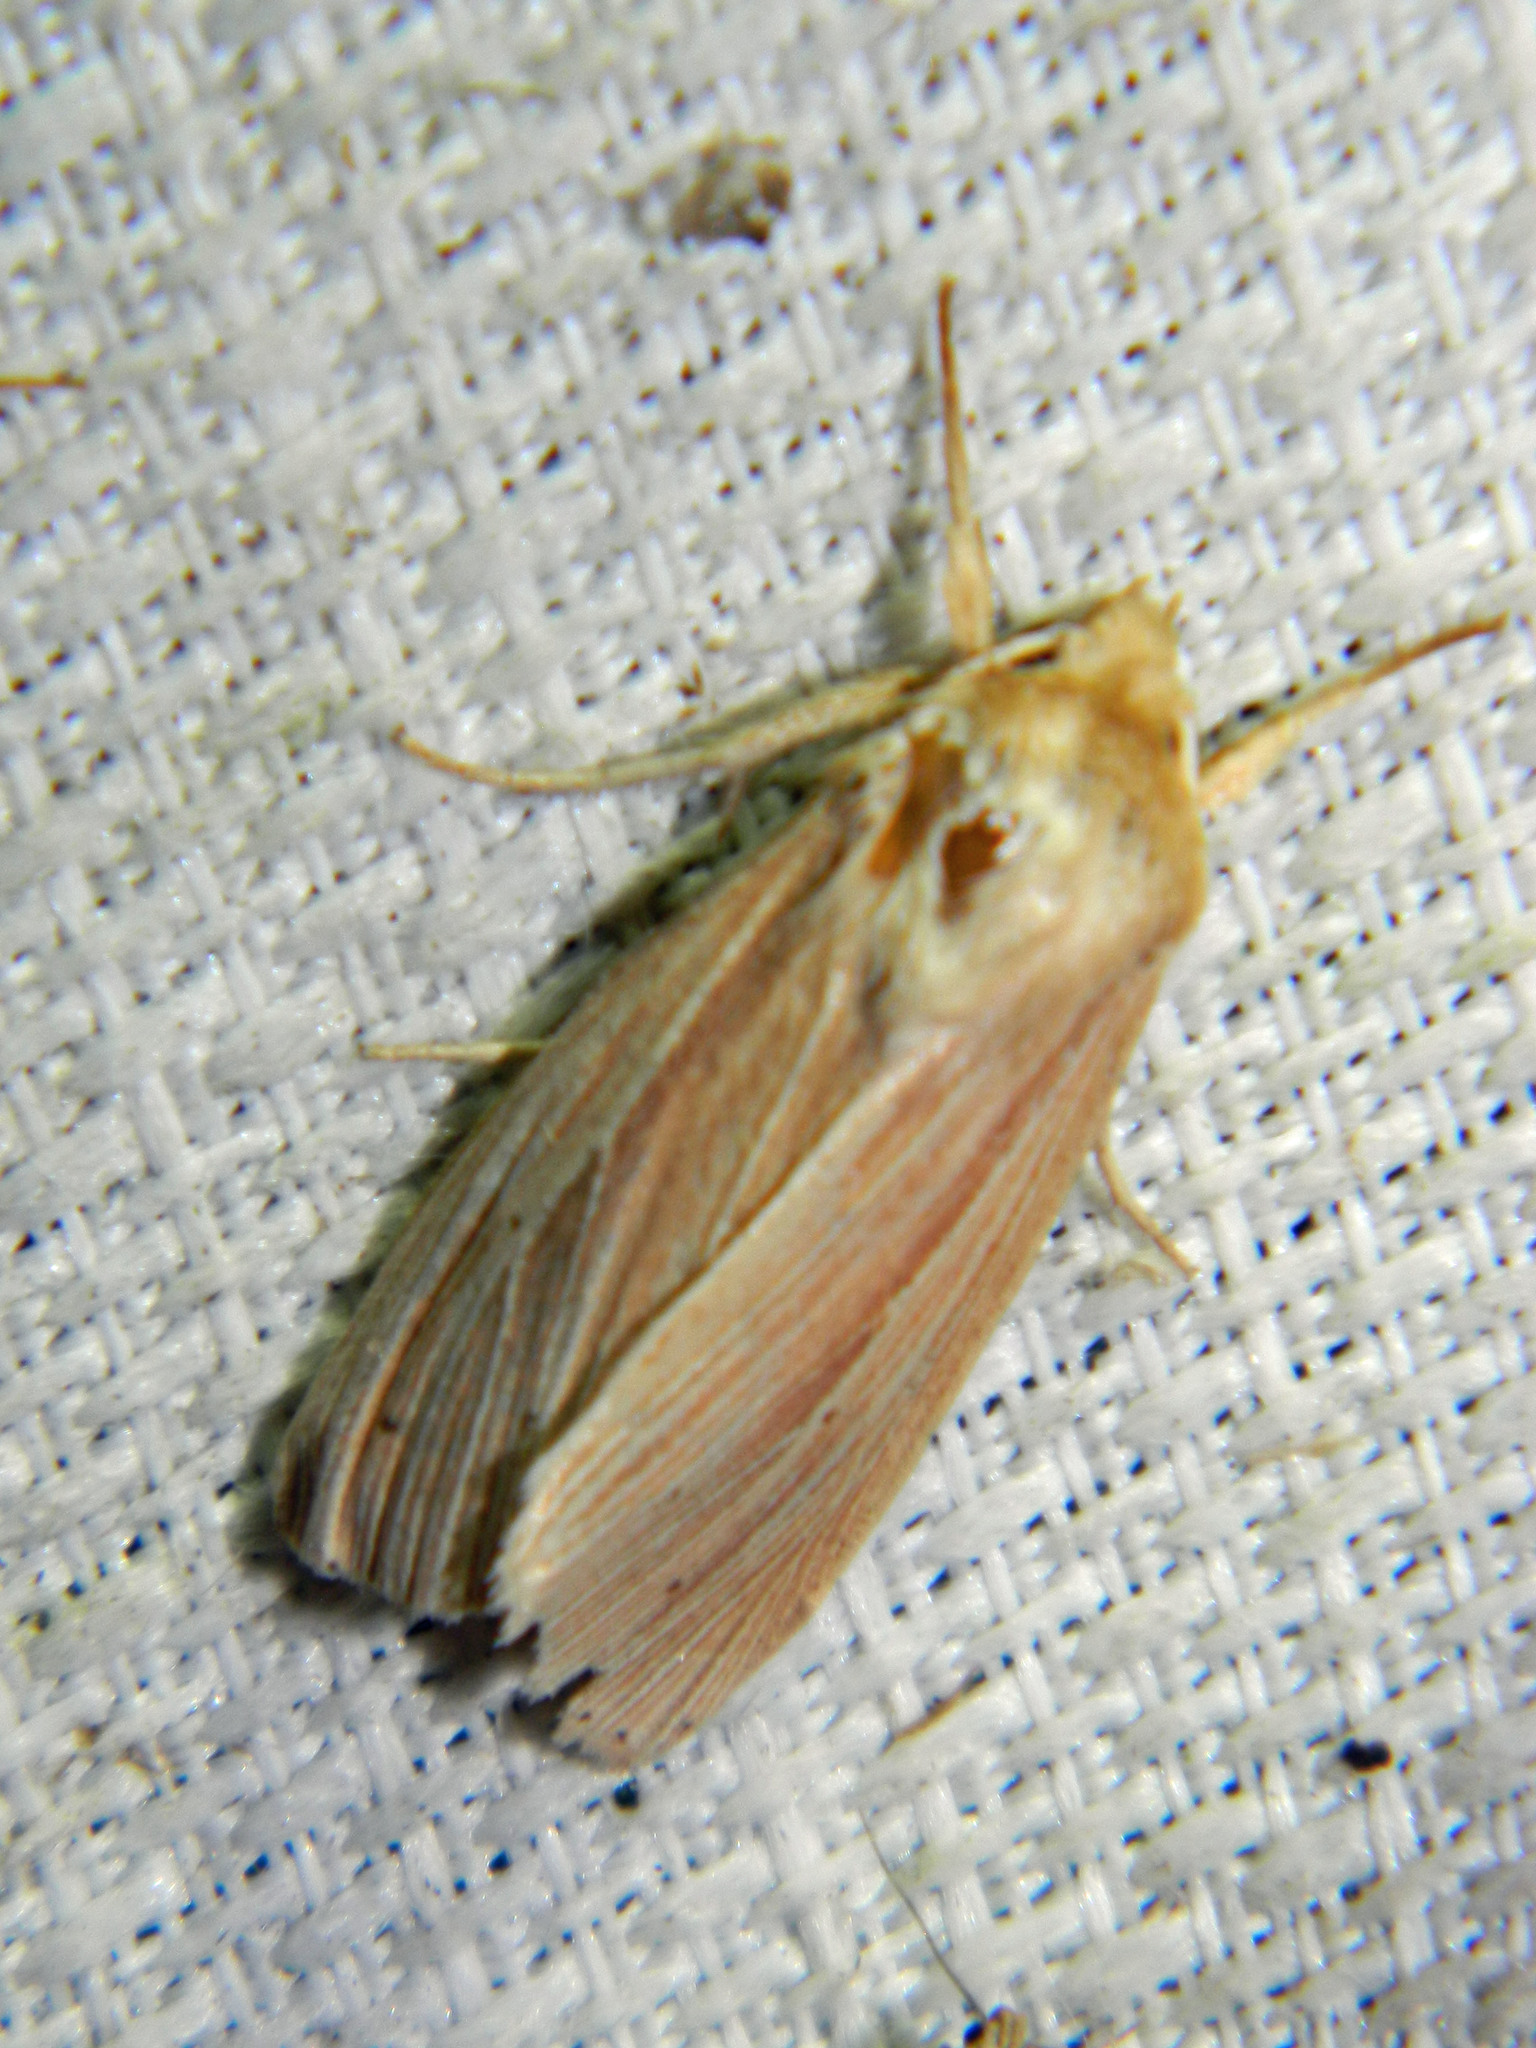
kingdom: Animalia
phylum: Arthropoda
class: Insecta
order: Lepidoptera
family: Noctuidae
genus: Mythimna
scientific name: Mythimna oxygala
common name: Lesser wainscot
